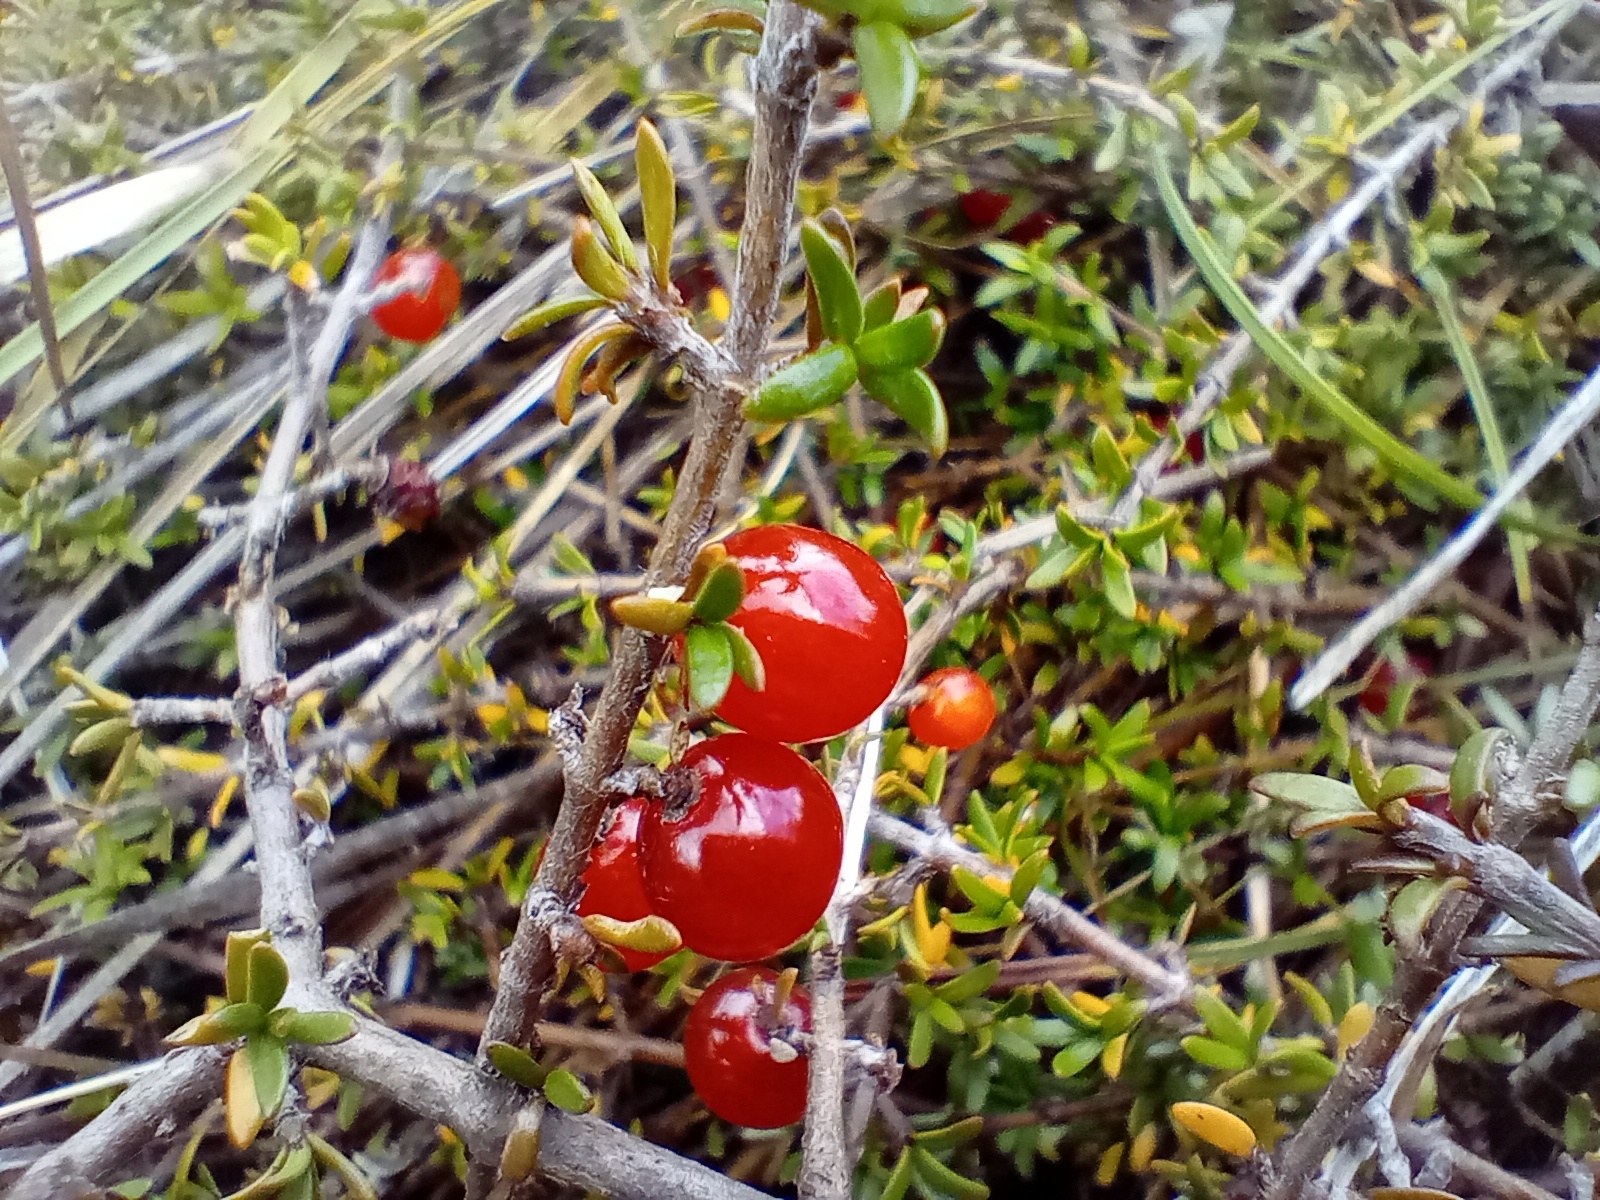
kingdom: Plantae
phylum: Tracheophyta
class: Magnoliopsida
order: Gentianales
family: Rubiaceae
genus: Coprosma
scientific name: Coprosma cheesemanii
